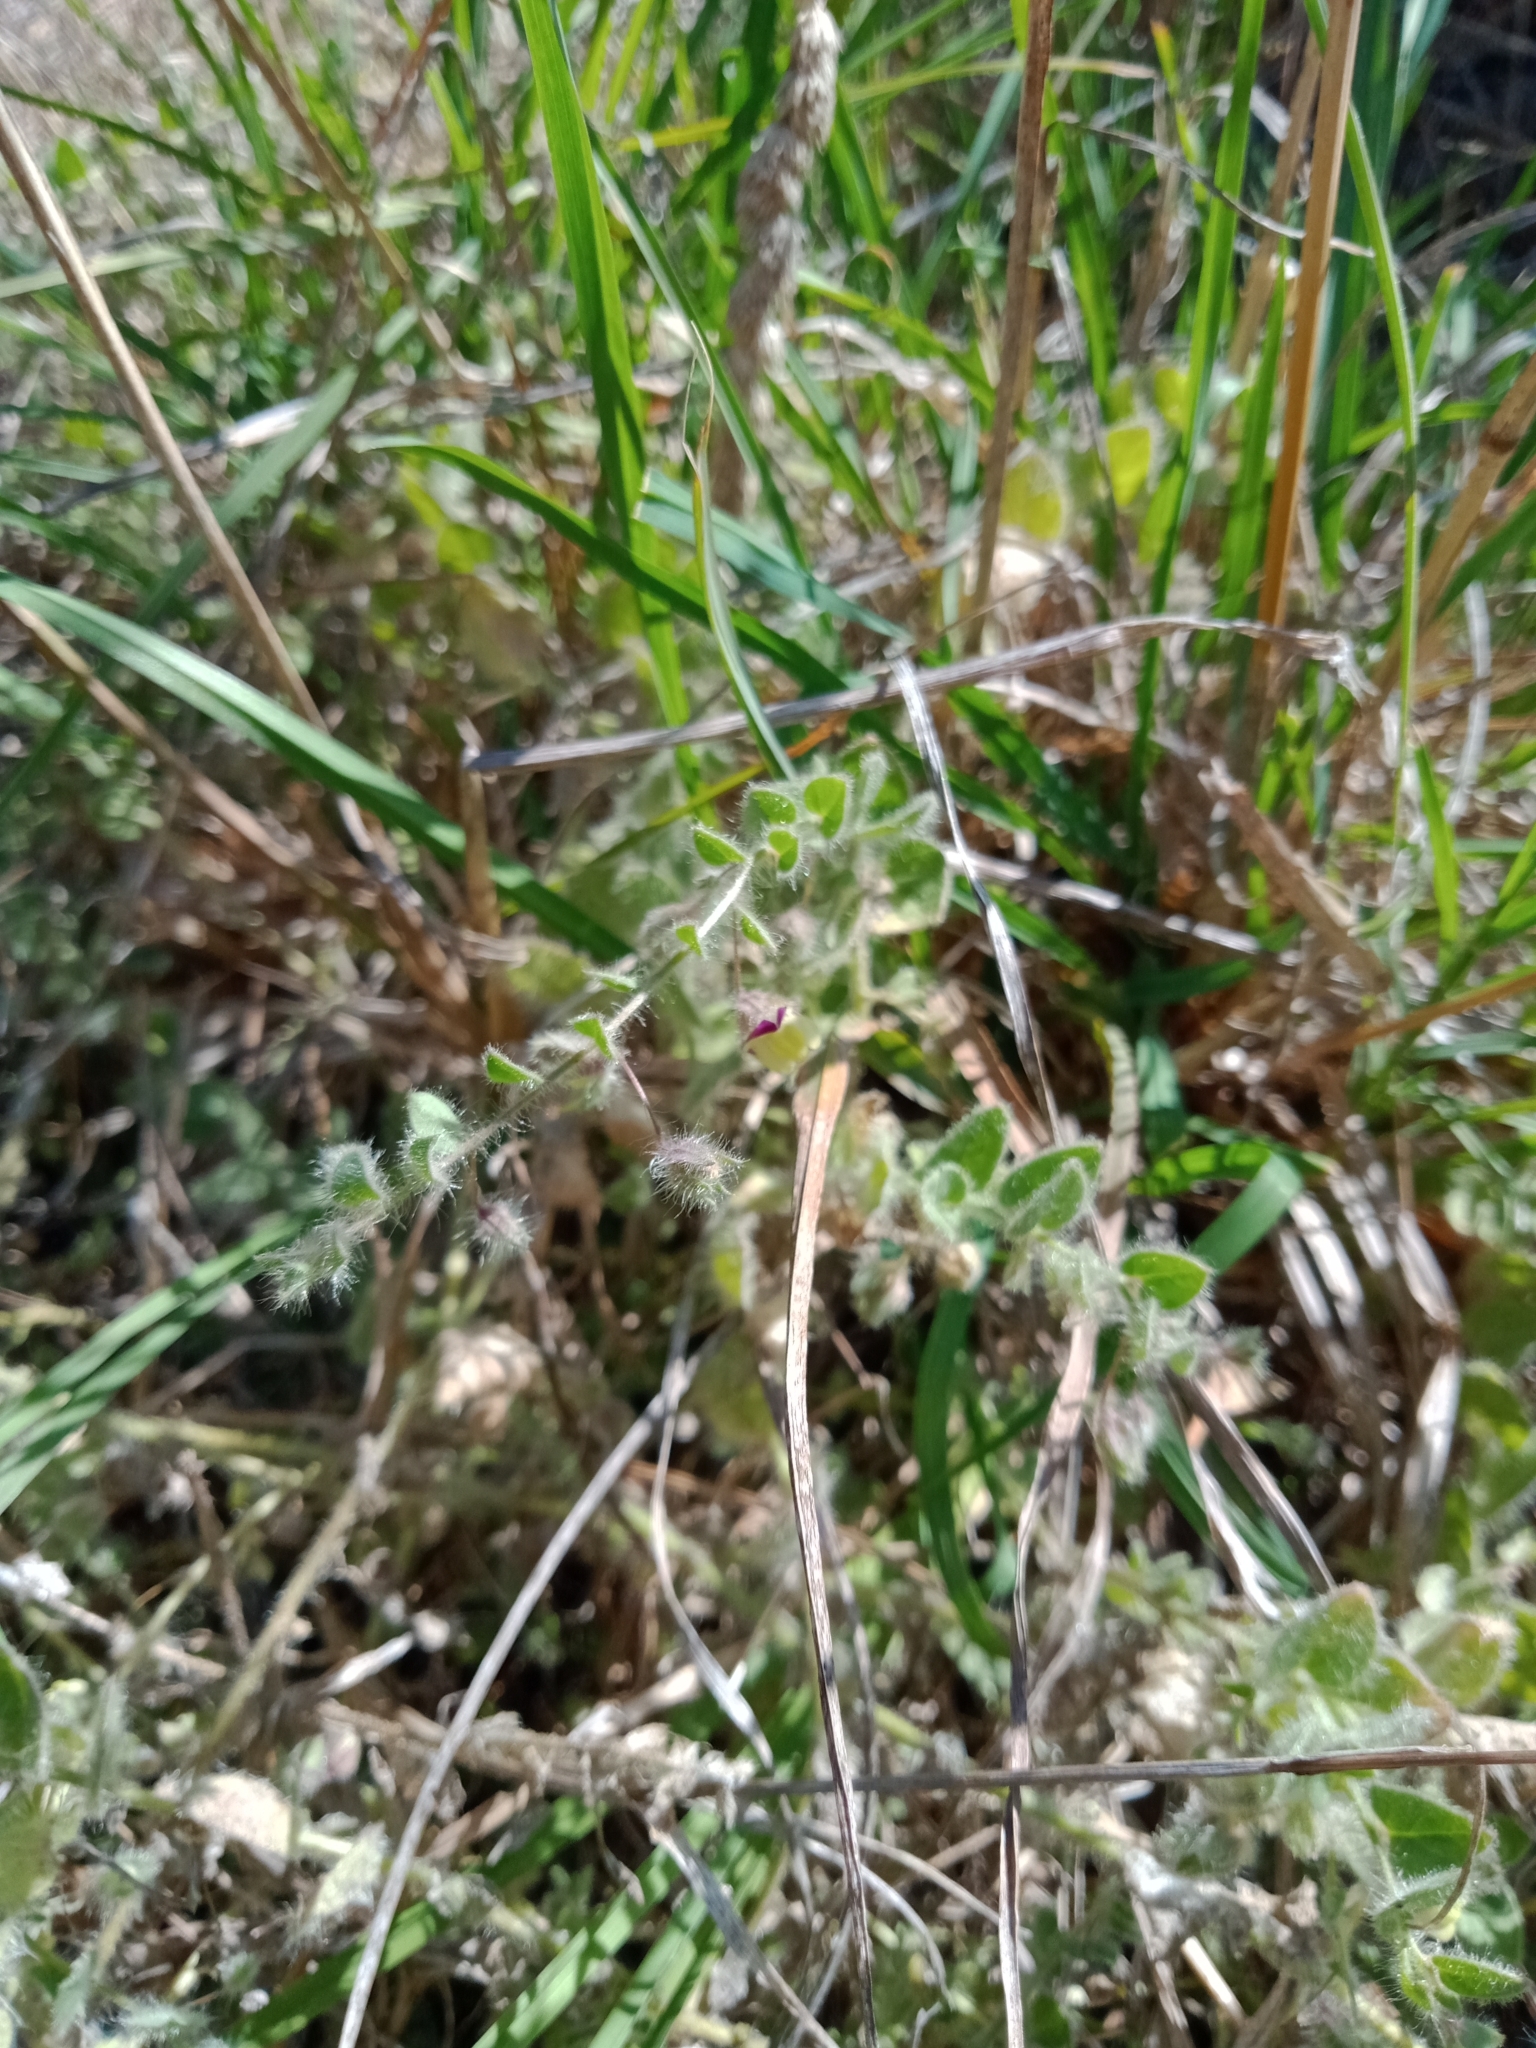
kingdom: Plantae
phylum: Tracheophyta
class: Magnoliopsida
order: Lamiales
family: Plantaginaceae
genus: Kickxia
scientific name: Kickxia elatine
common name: Sharp-leaved fluellen
